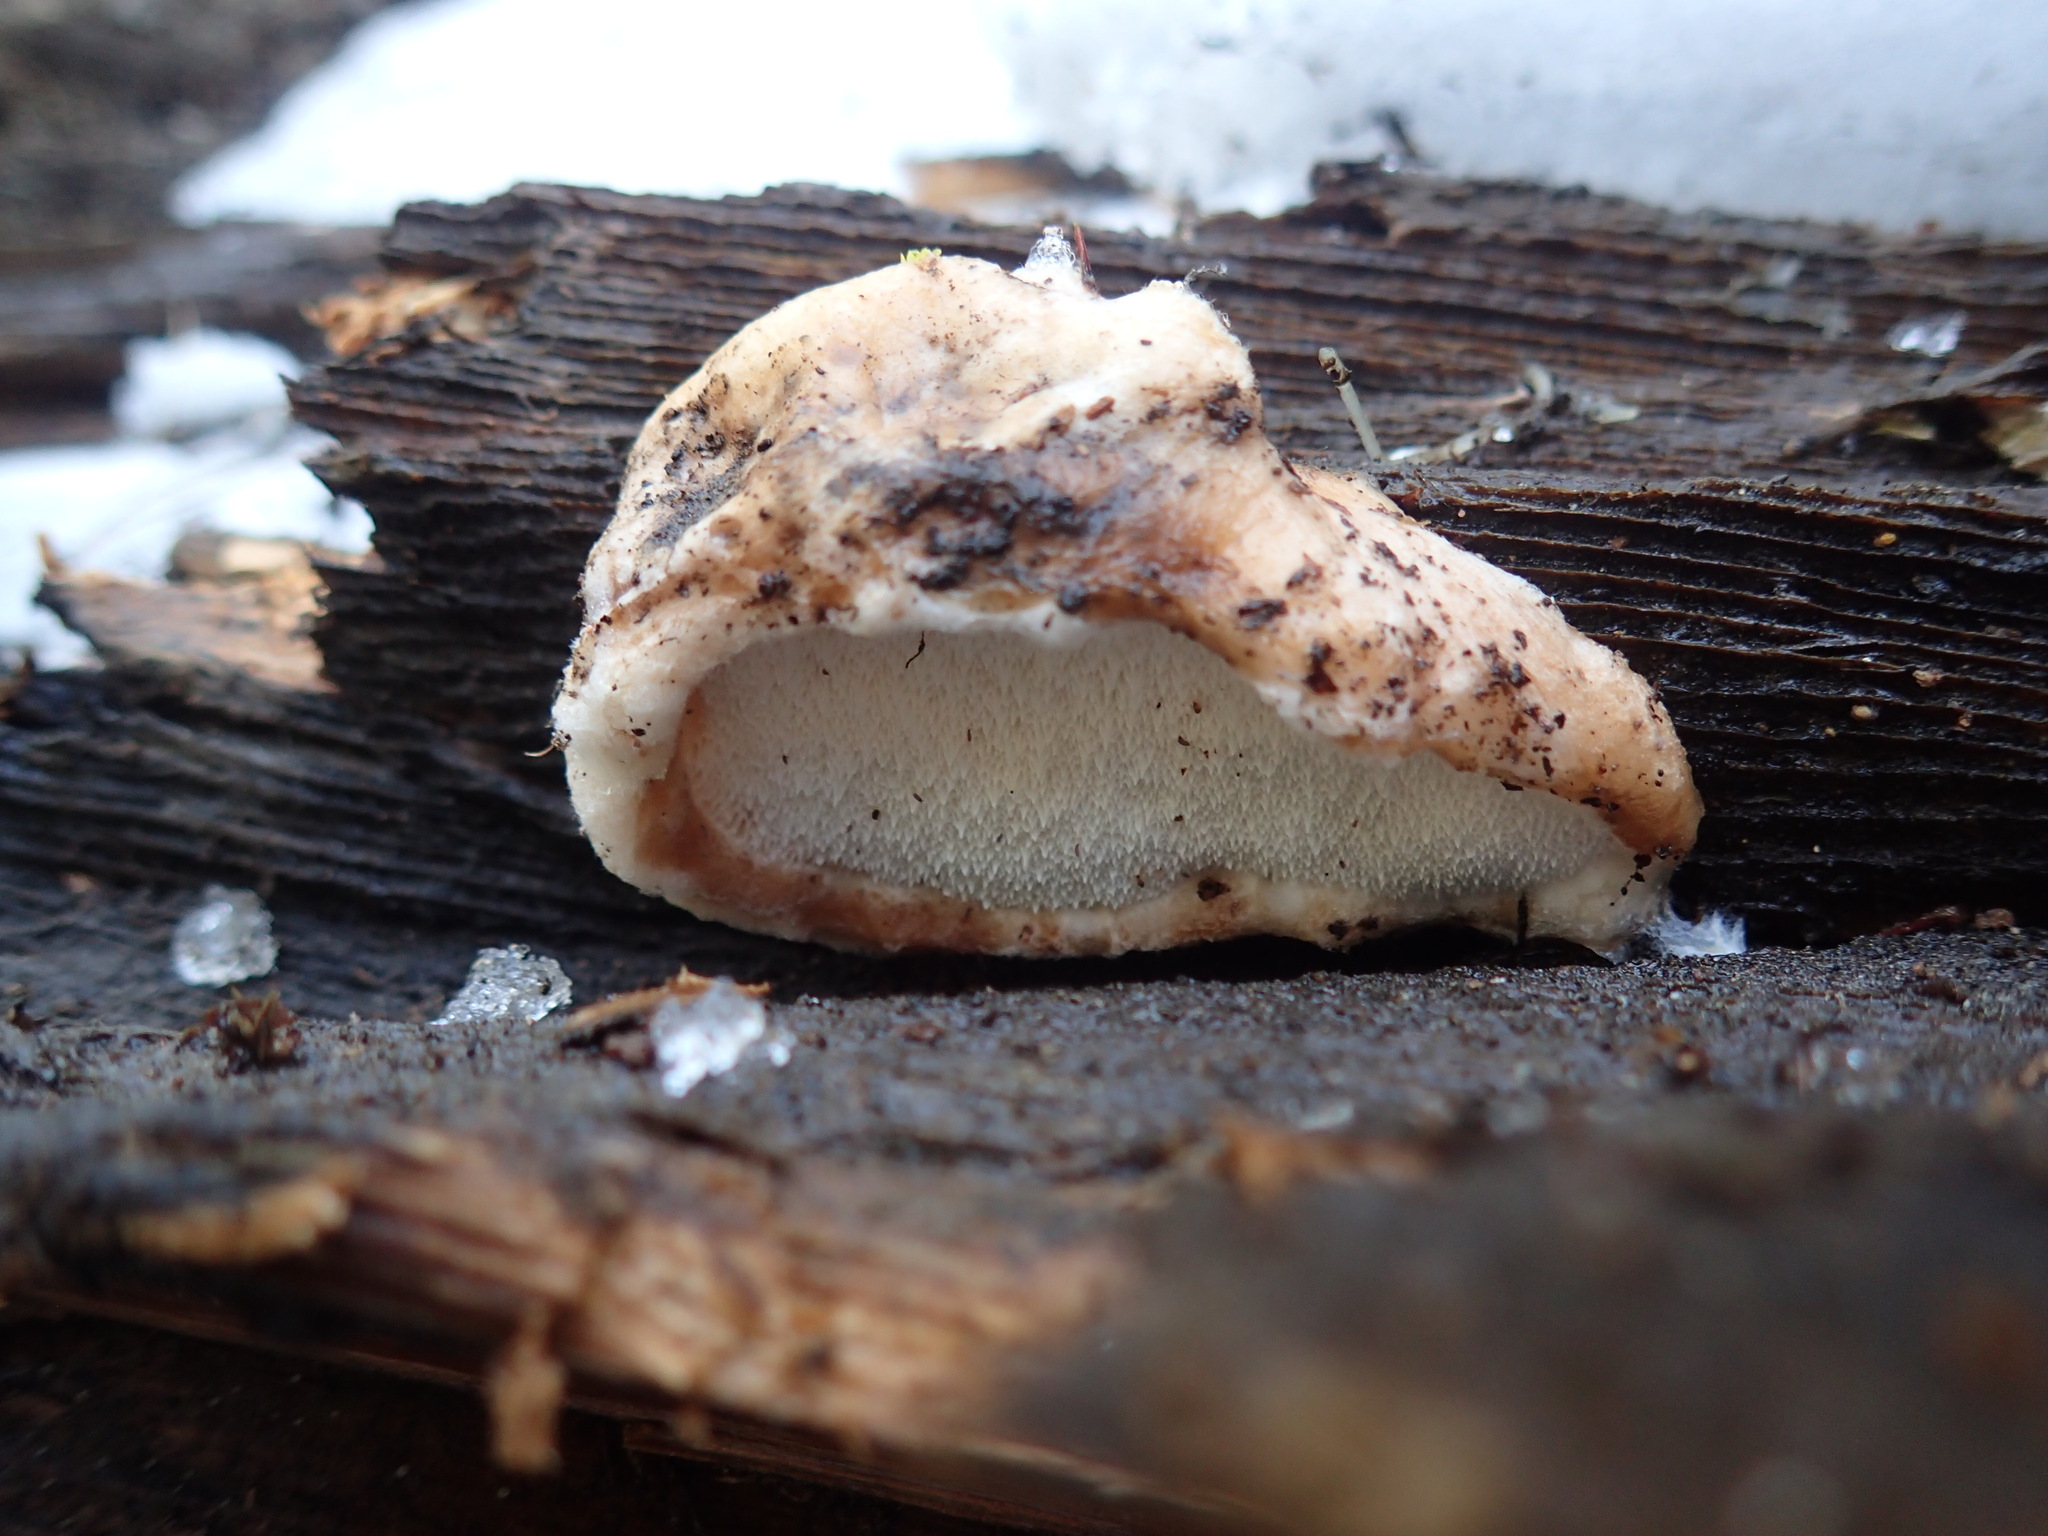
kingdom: Fungi
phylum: Basidiomycota
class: Agaricomycetes
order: Polyporales
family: Incrustoporiaceae
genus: Tyromyces
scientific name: Tyromyces leucospongius
